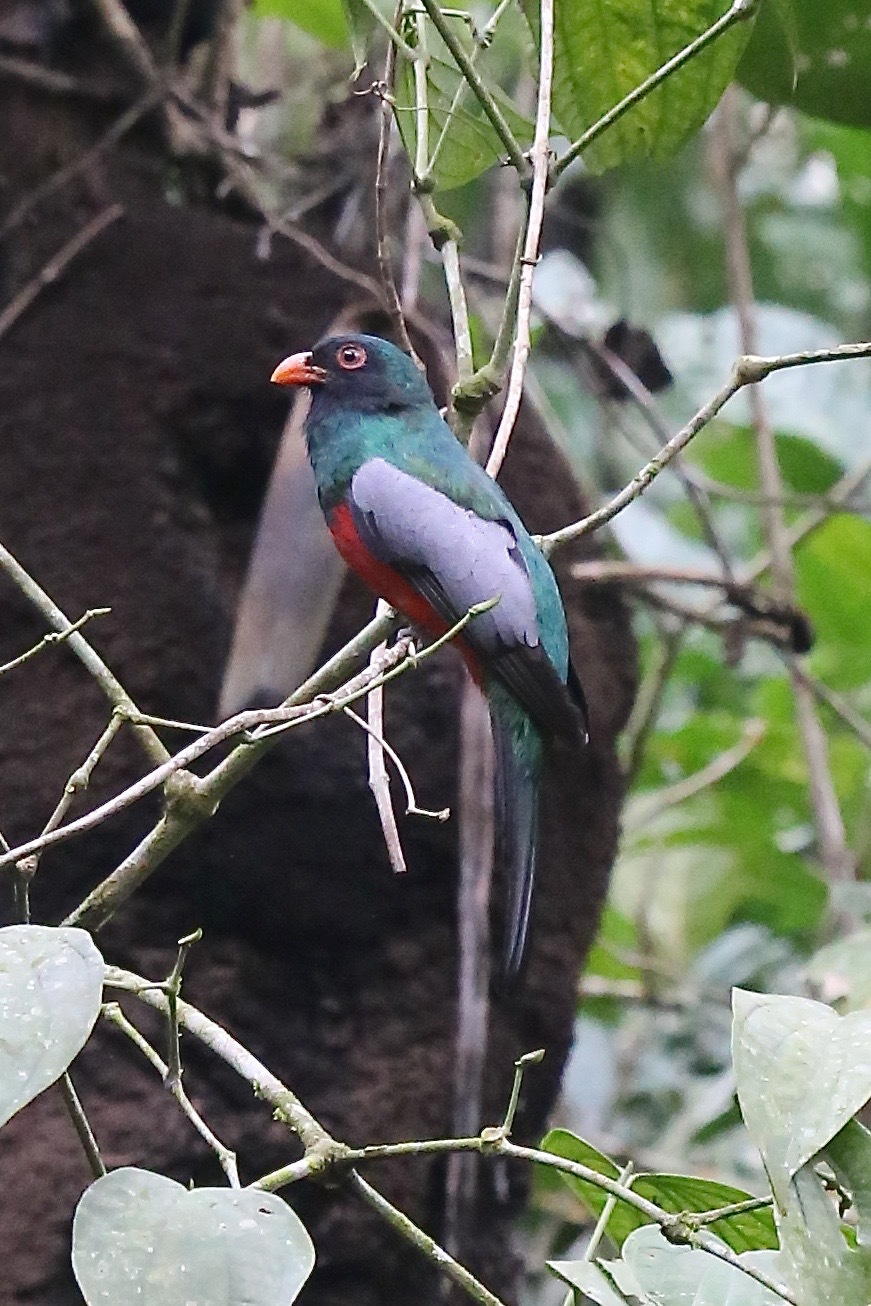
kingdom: Animalia
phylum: Chordata
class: Aves
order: Trogoniformes
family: Trogonidae
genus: Trogon
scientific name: Trogon massena
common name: Slaty-tailed trogon
